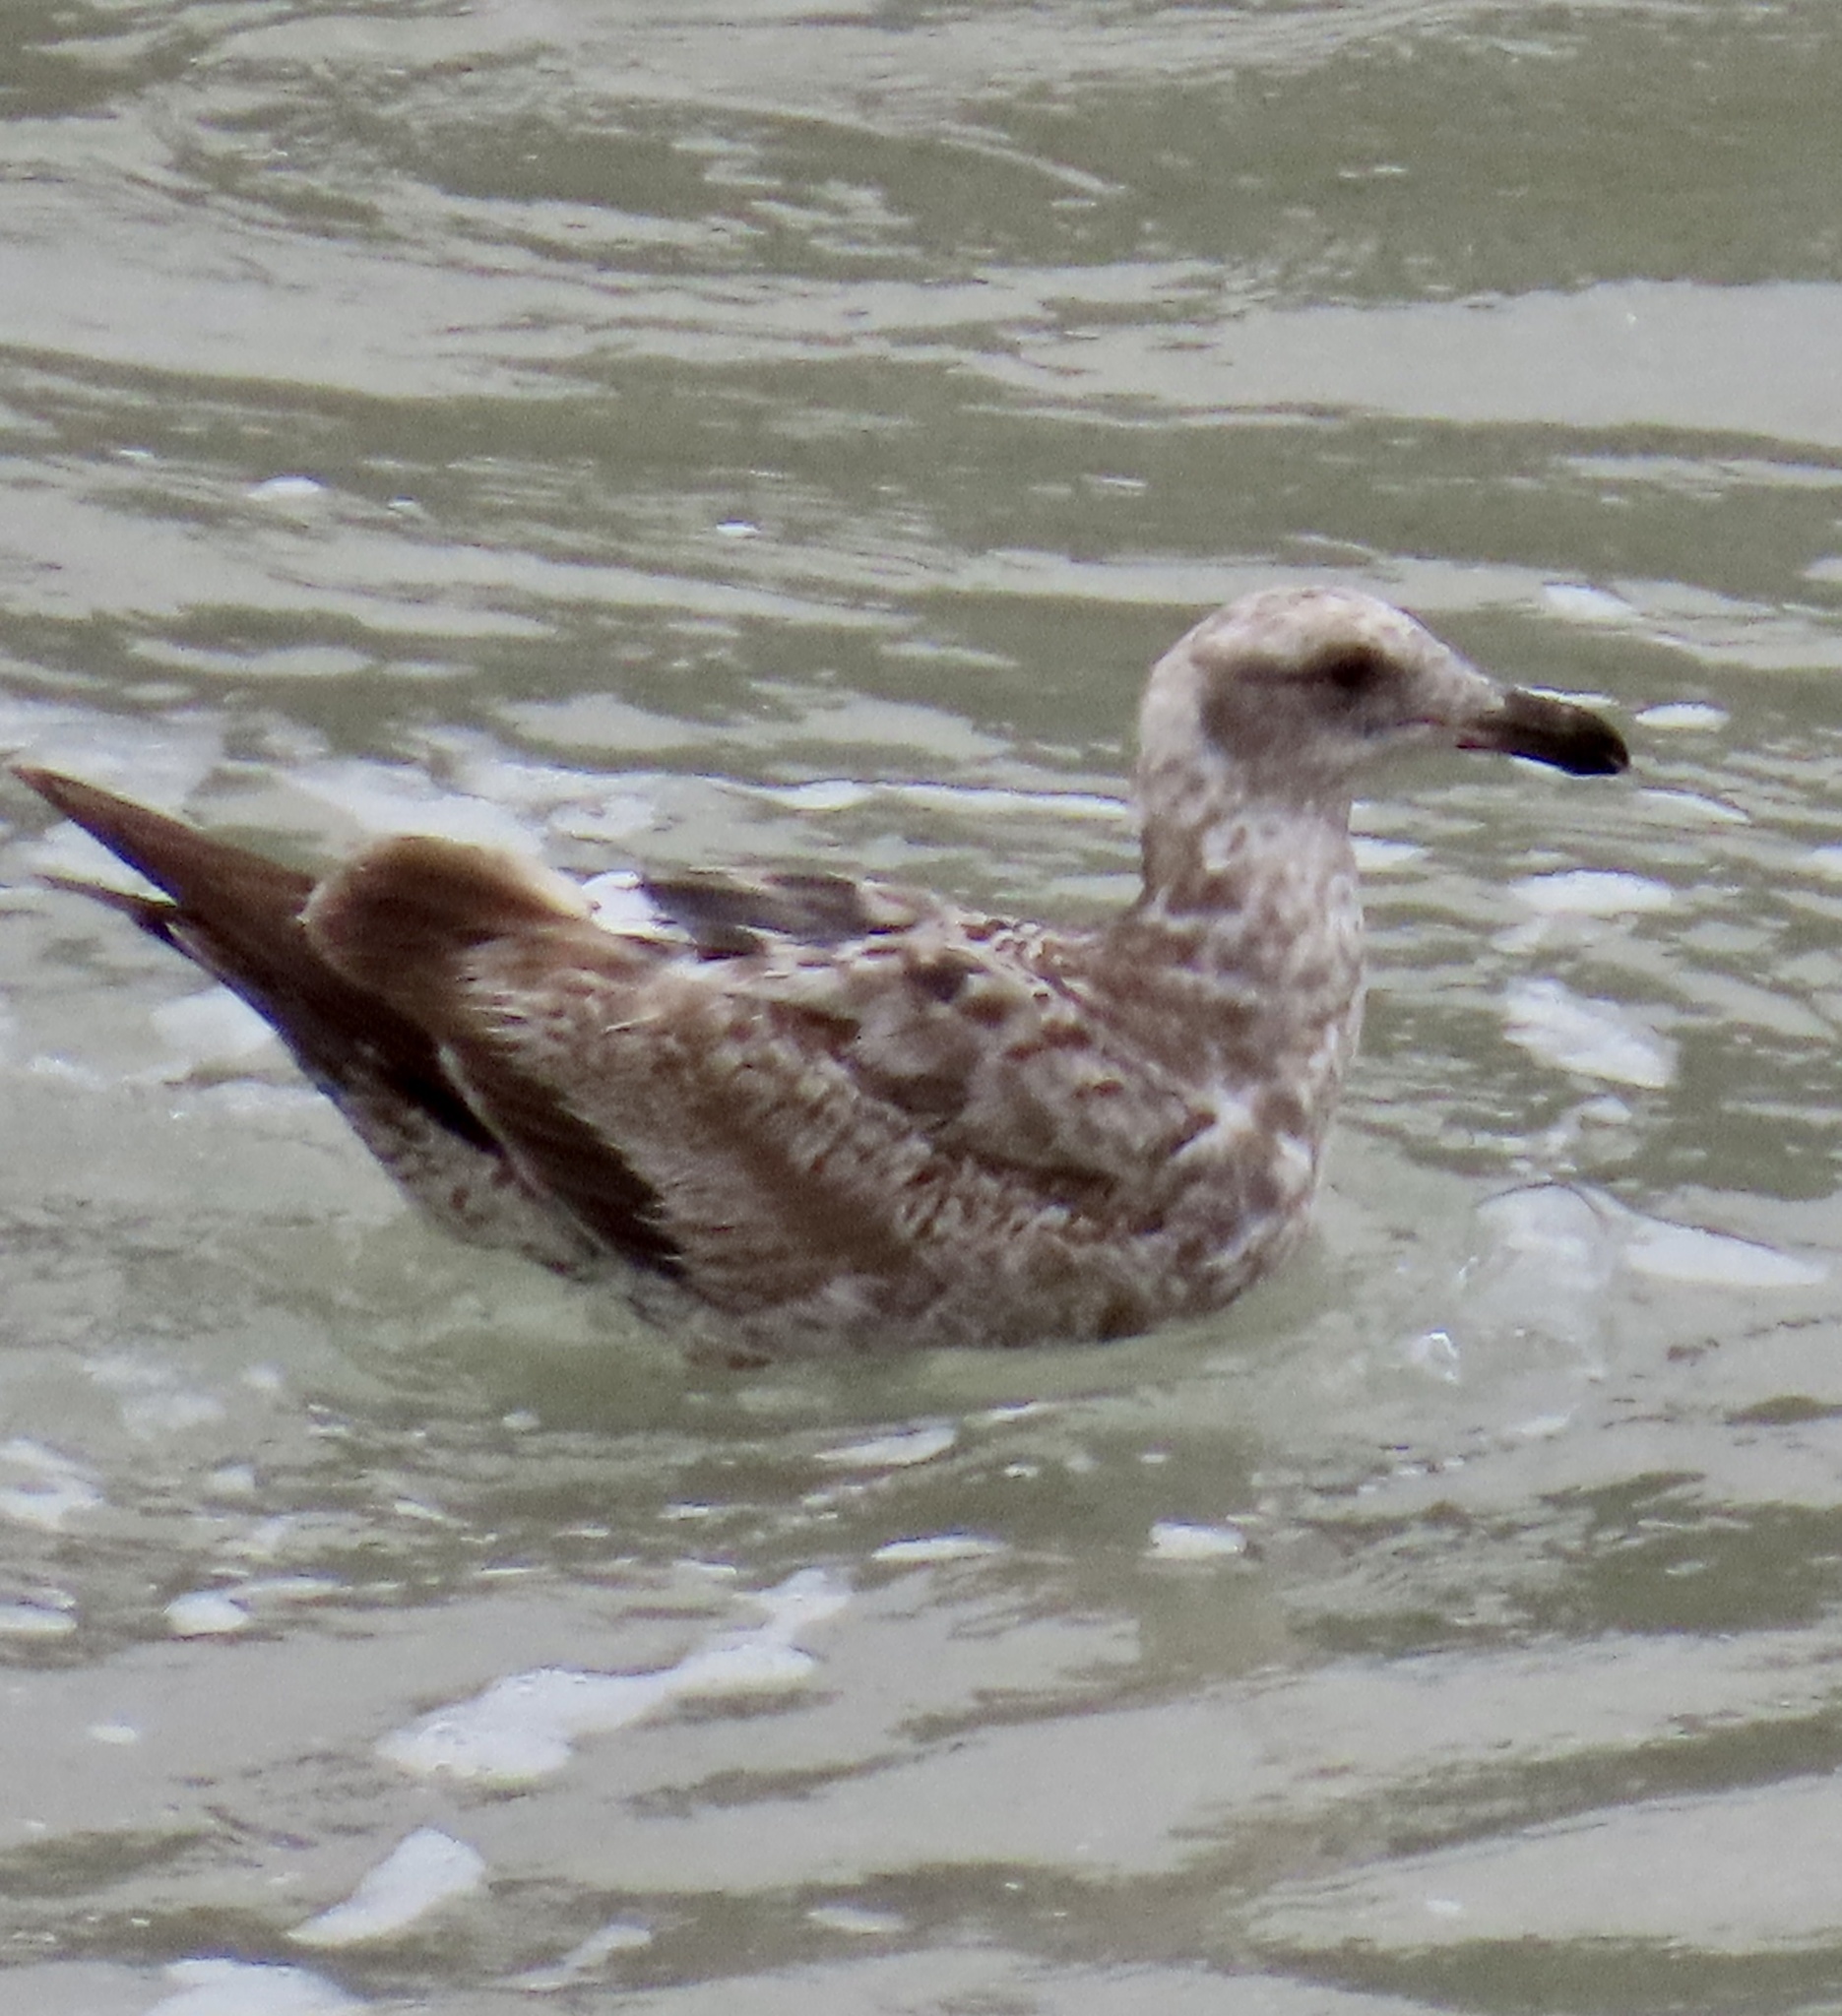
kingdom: Animalia
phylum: Chordata
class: Aves
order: Charadriiformes
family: Laridae
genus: Larus
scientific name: Larus argentatus
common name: Herring gull
